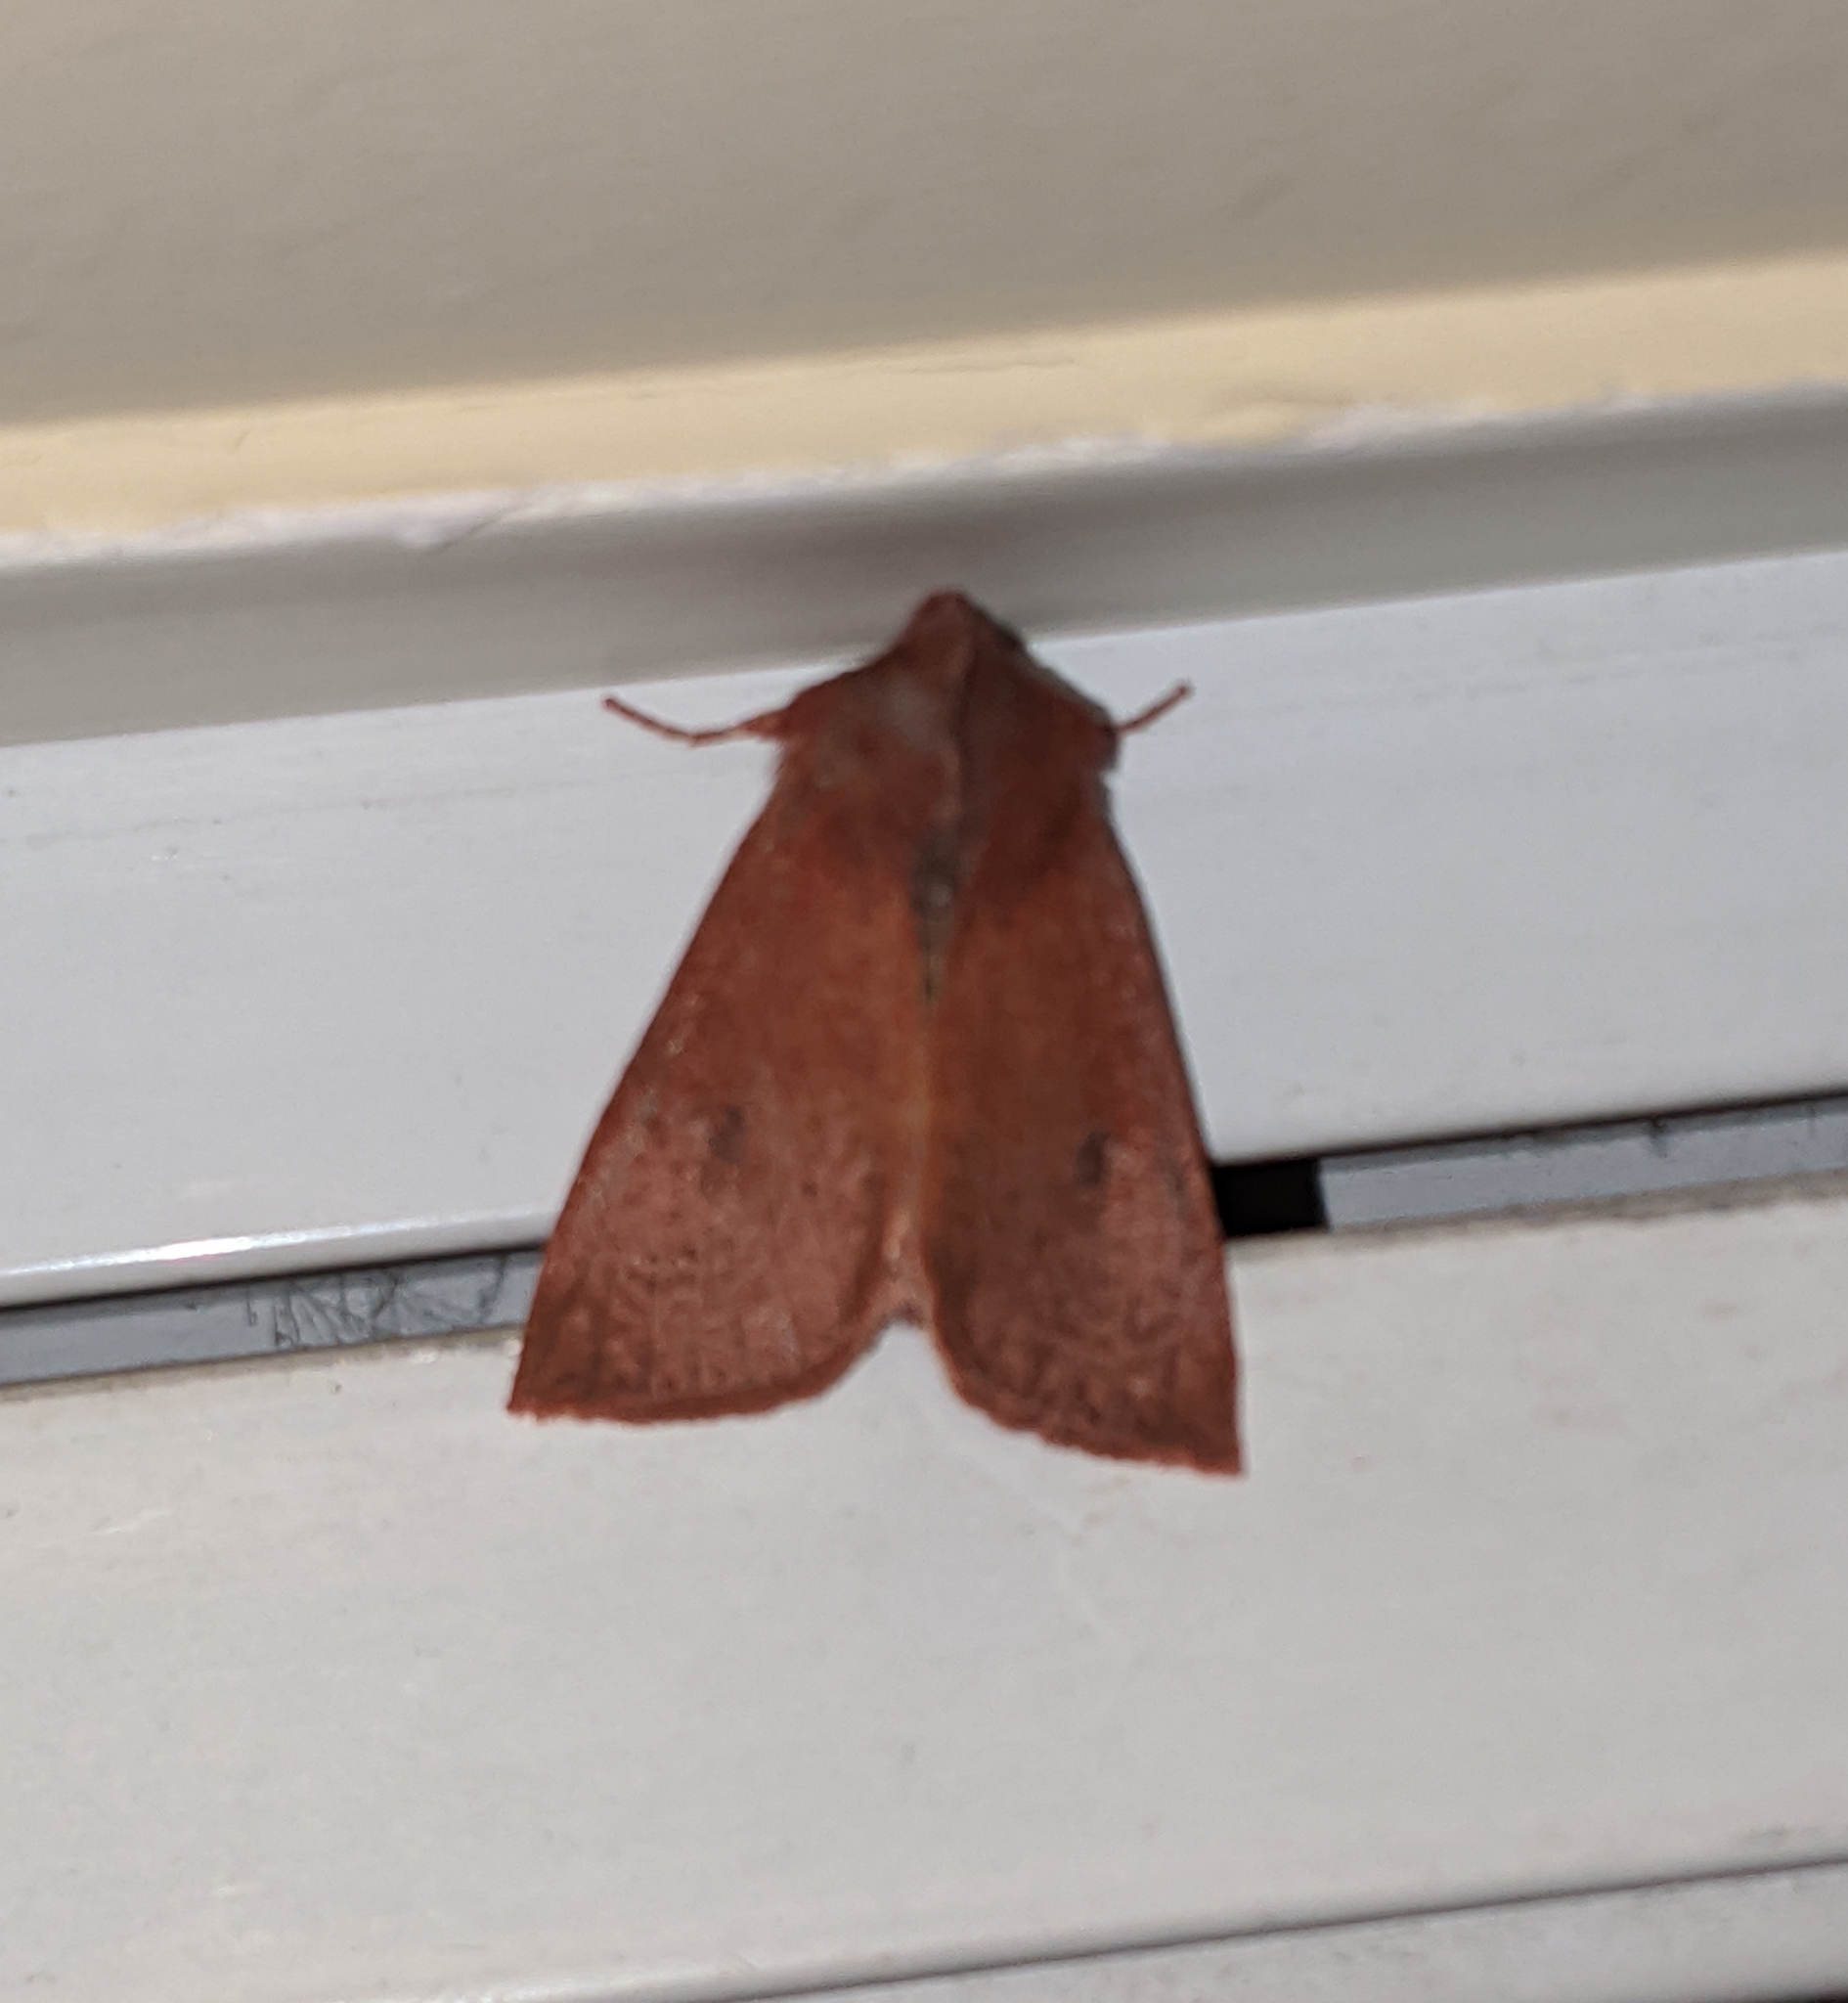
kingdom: Animalia
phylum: Arthropoda
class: Insecta
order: Lepidoptera
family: Noctuidae
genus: Orthosia
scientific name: Orthosia transparens
